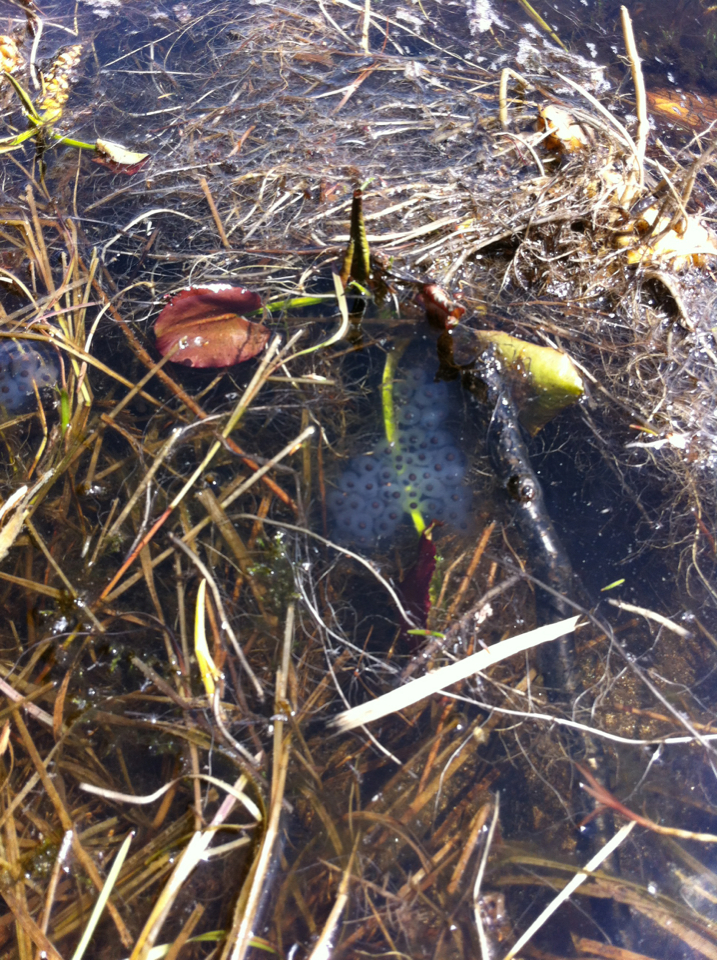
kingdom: Animalia
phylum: Chordata
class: Amphibia
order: Caudata
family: Ambystomatidae
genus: Ambystoma
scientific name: Ambystoma maculatum
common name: Spotted salamander
